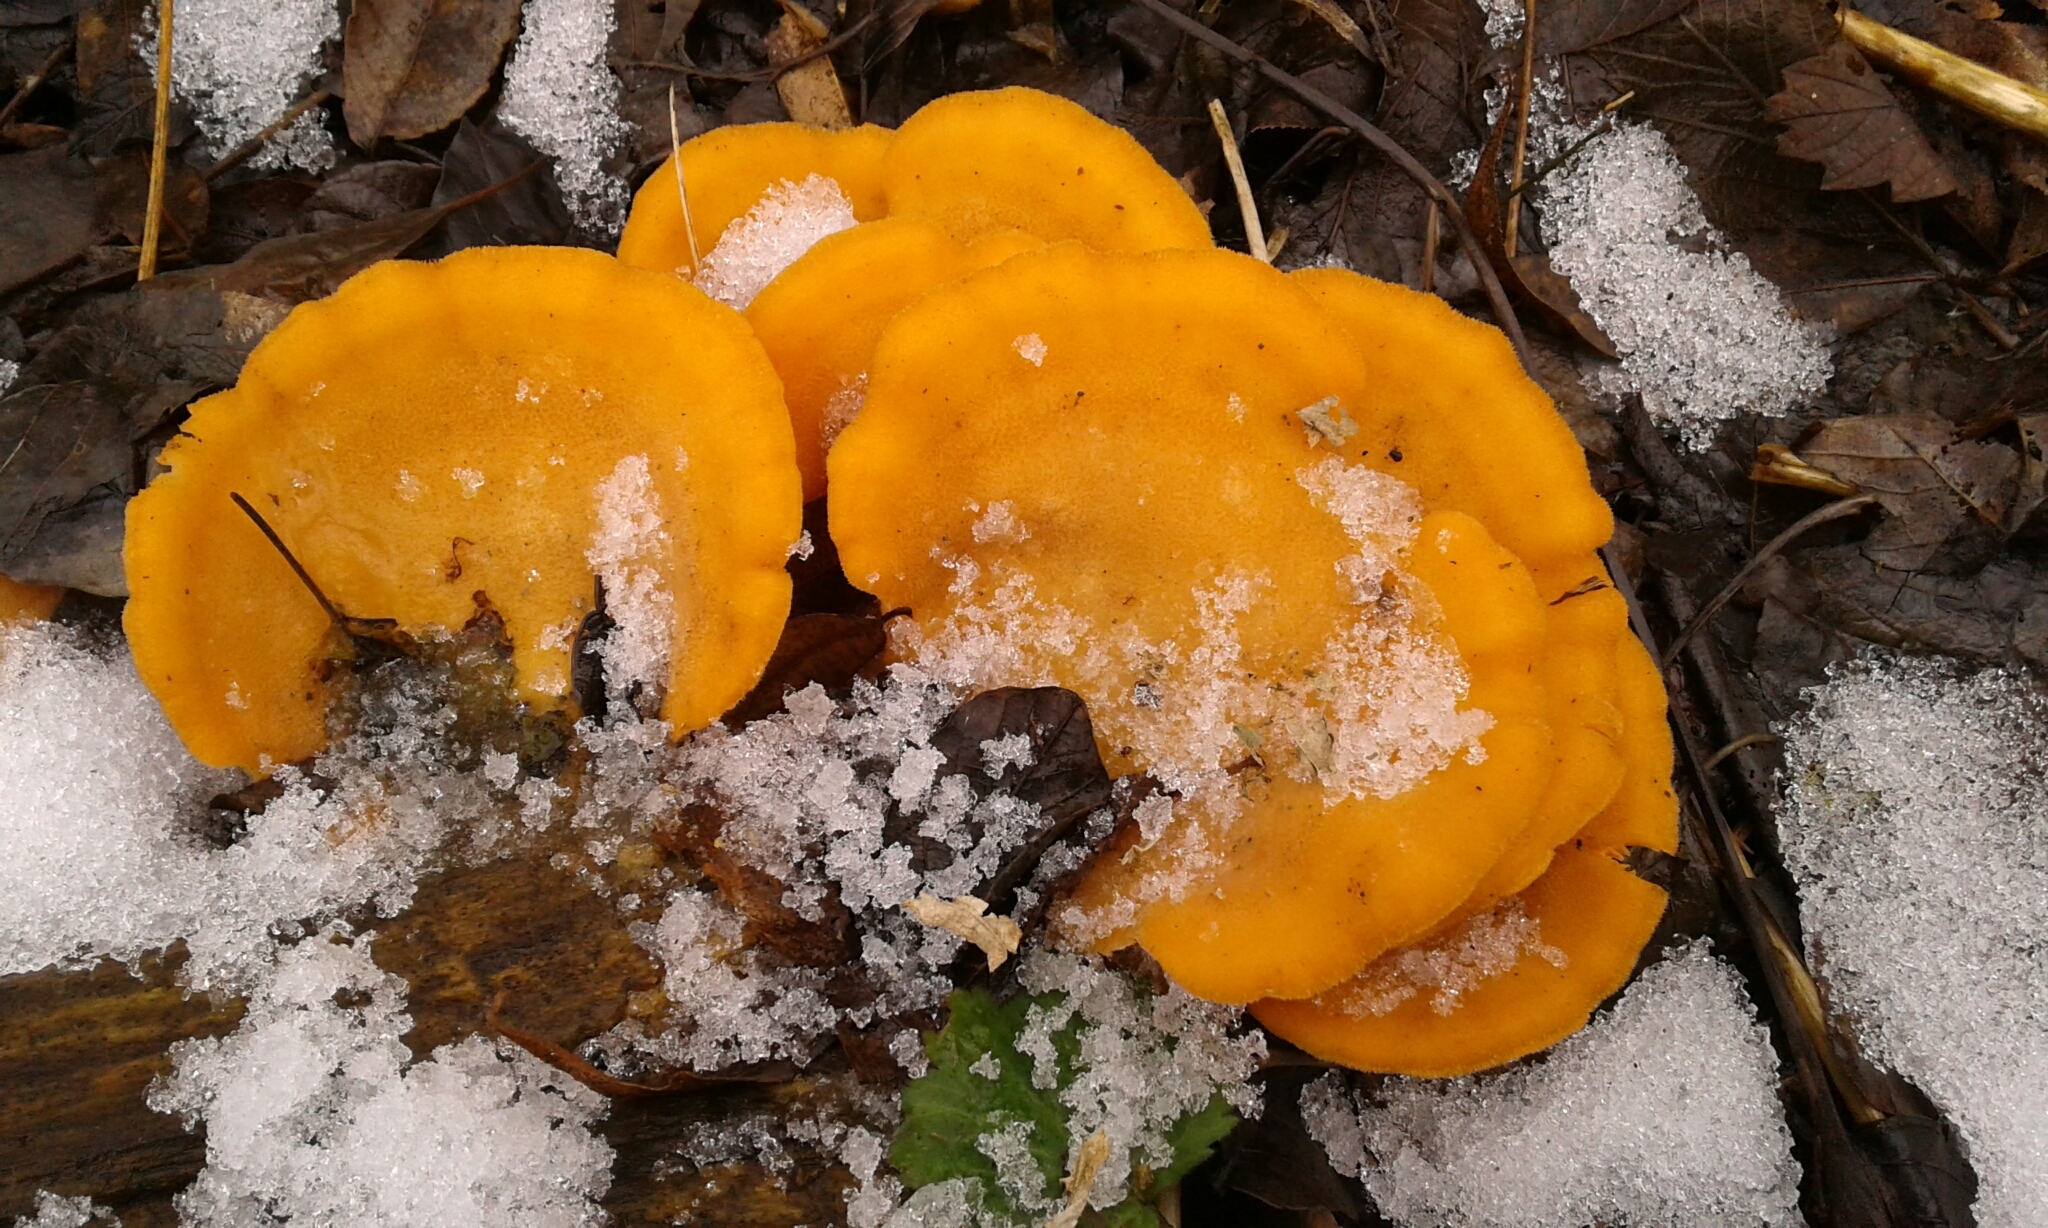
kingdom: Fungi
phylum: Basidiomycota
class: Agaricomycetes
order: Agaricales
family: Phyllotopsidaceae
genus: Phyllotopsis
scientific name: Phyllotopsis nidulans
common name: Orange mock oyster
